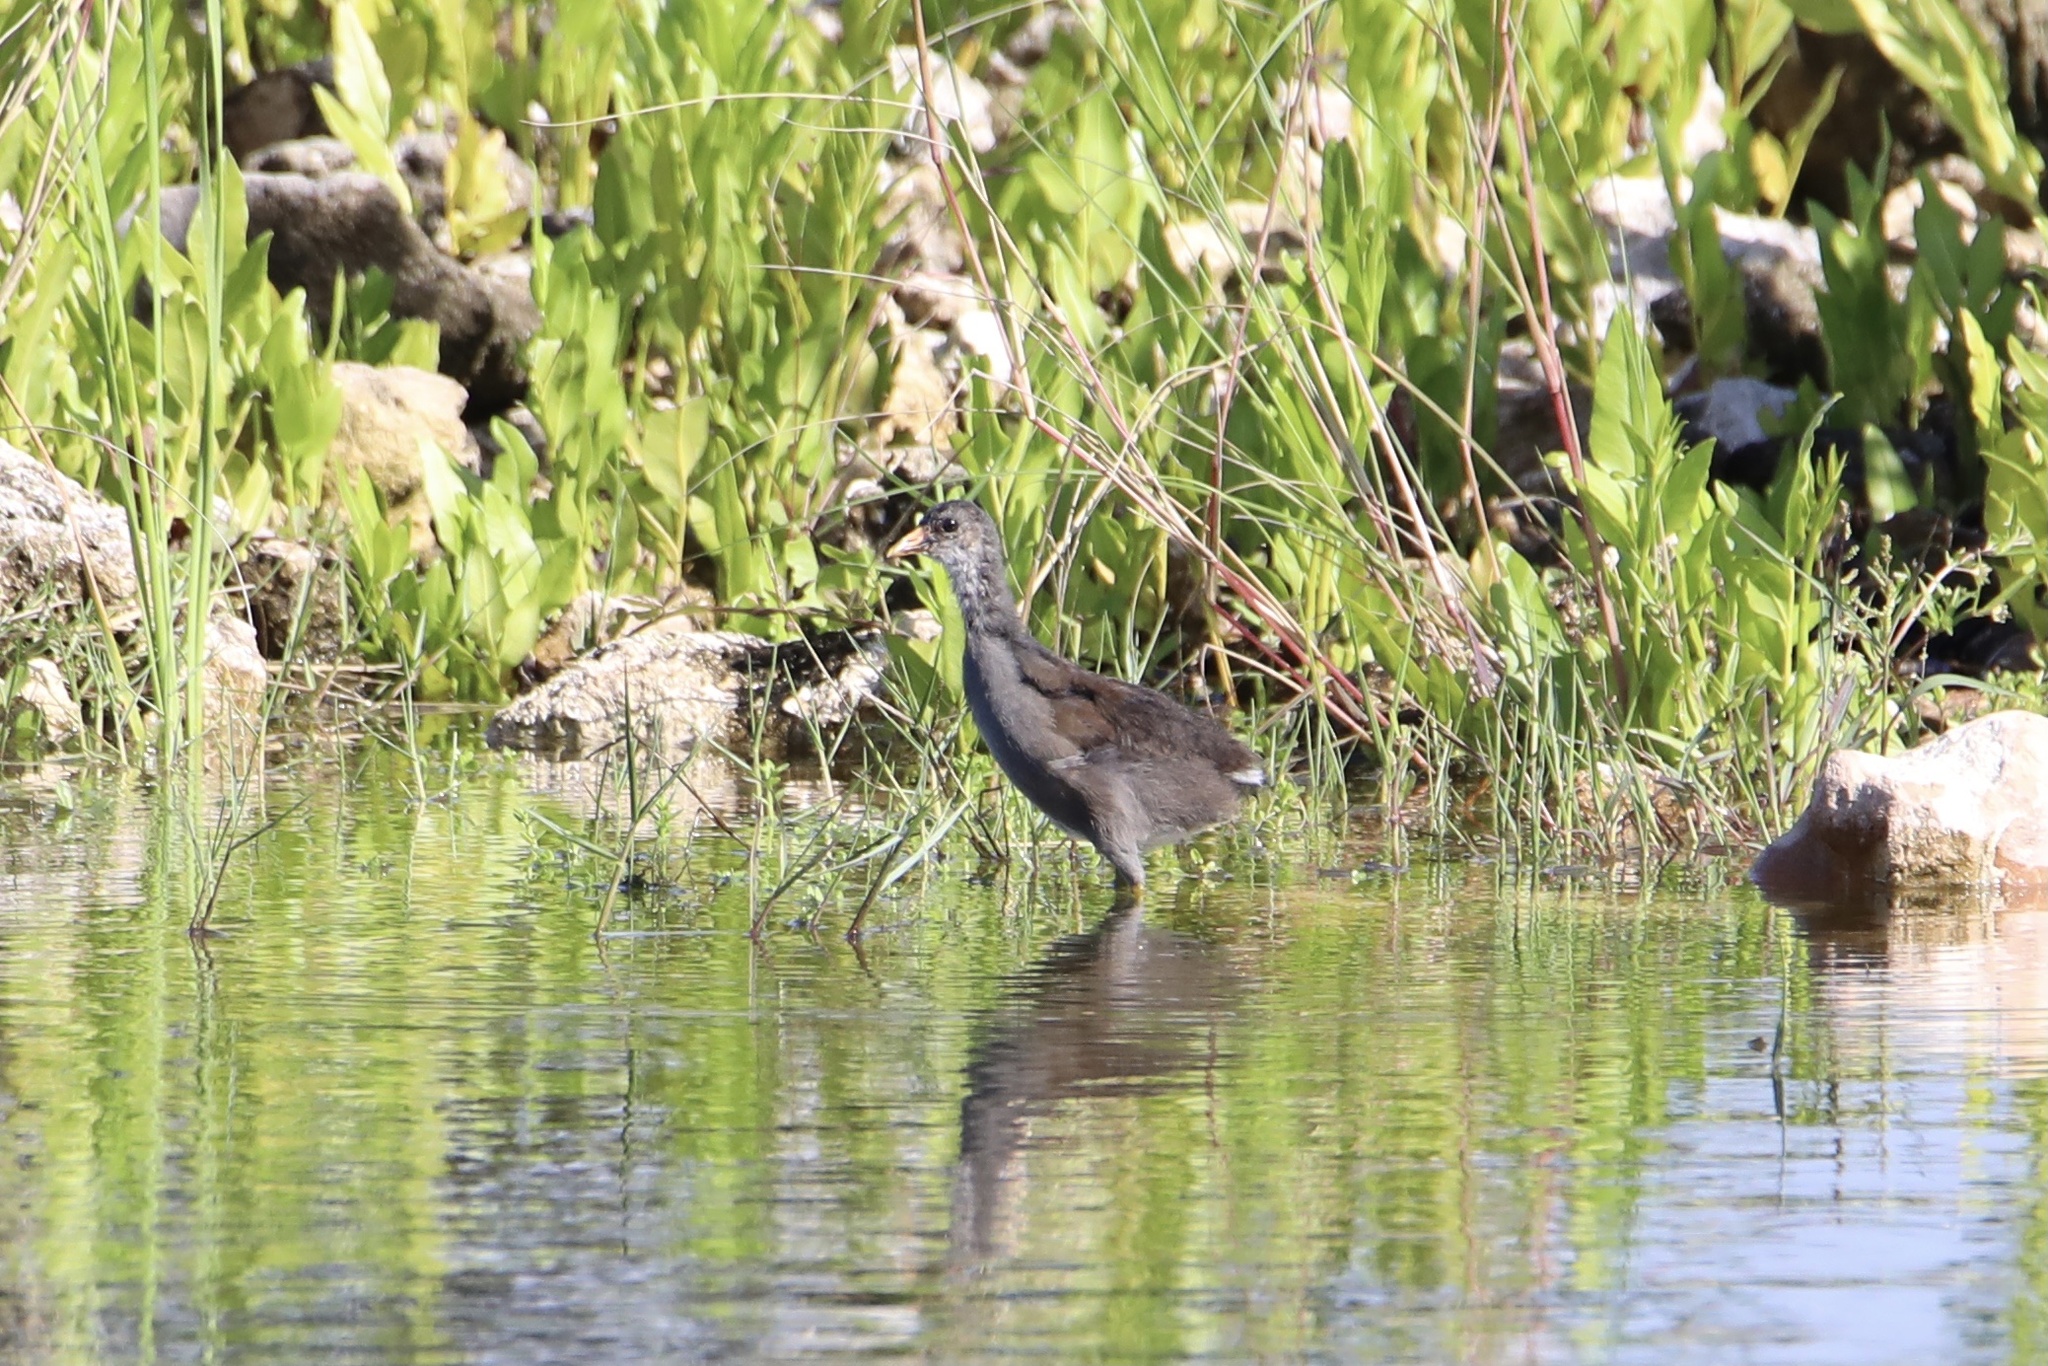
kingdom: Animalia
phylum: Chordata
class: Aves
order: Gruiformes
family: Rallidae
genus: Gallinula
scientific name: Gallinula chloropus
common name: Common moorhen
